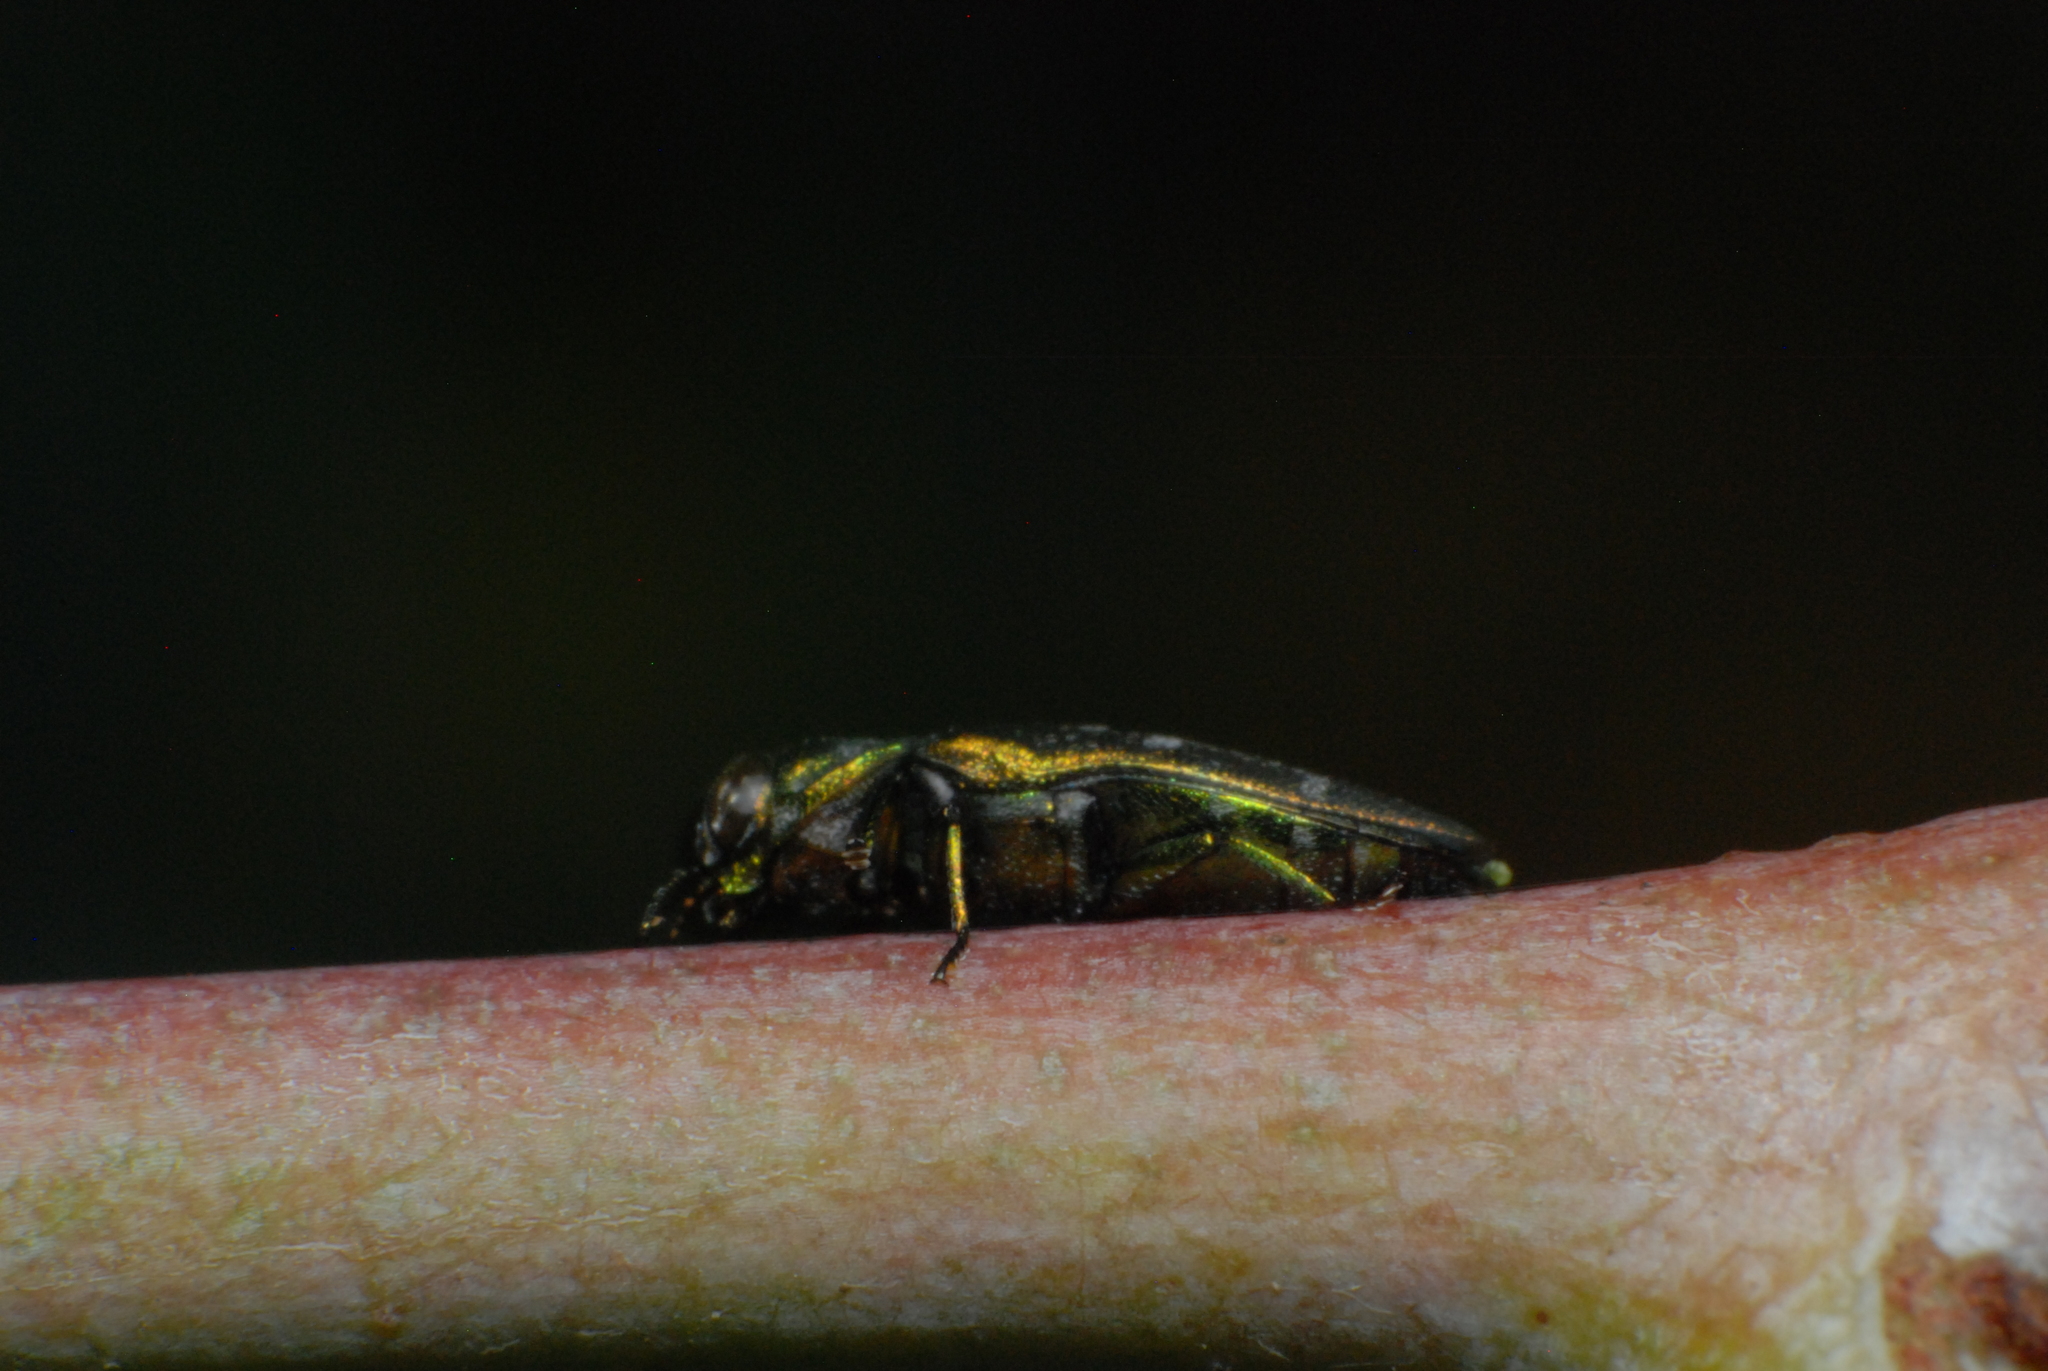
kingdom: Animalia
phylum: Arthropoda
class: Insecta
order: Coleoptera
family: Buprestidae
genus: Diphucrania
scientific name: Diphucrania aeruginosa
